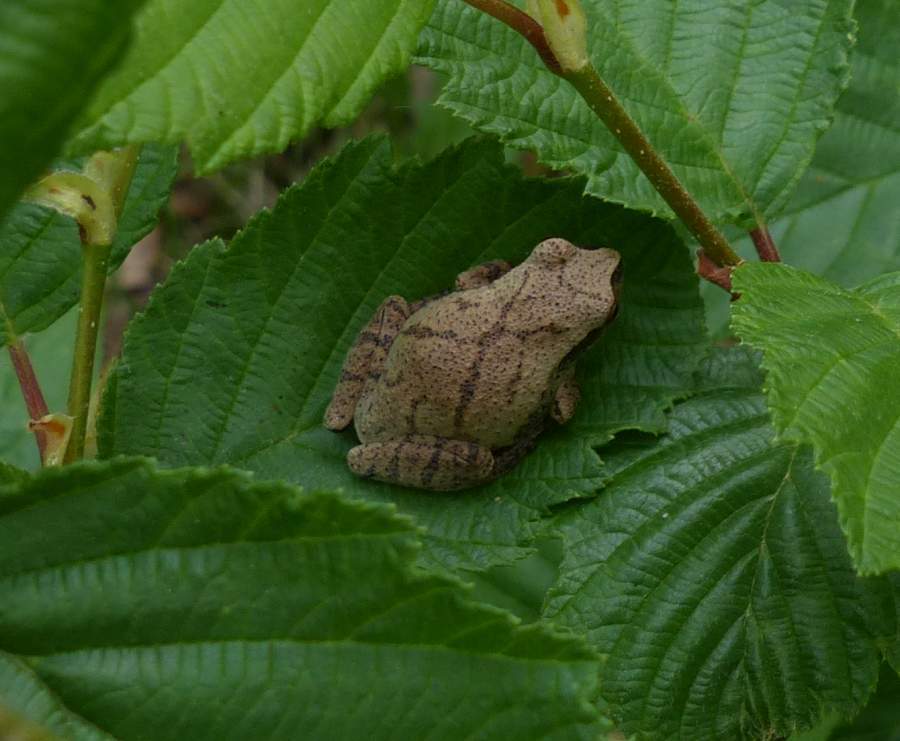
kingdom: Animalia
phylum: Chordata
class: Amphibia
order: Anura
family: Hylidae
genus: Pseudacris
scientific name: Pseudacris crucifer
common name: Spring peeper
